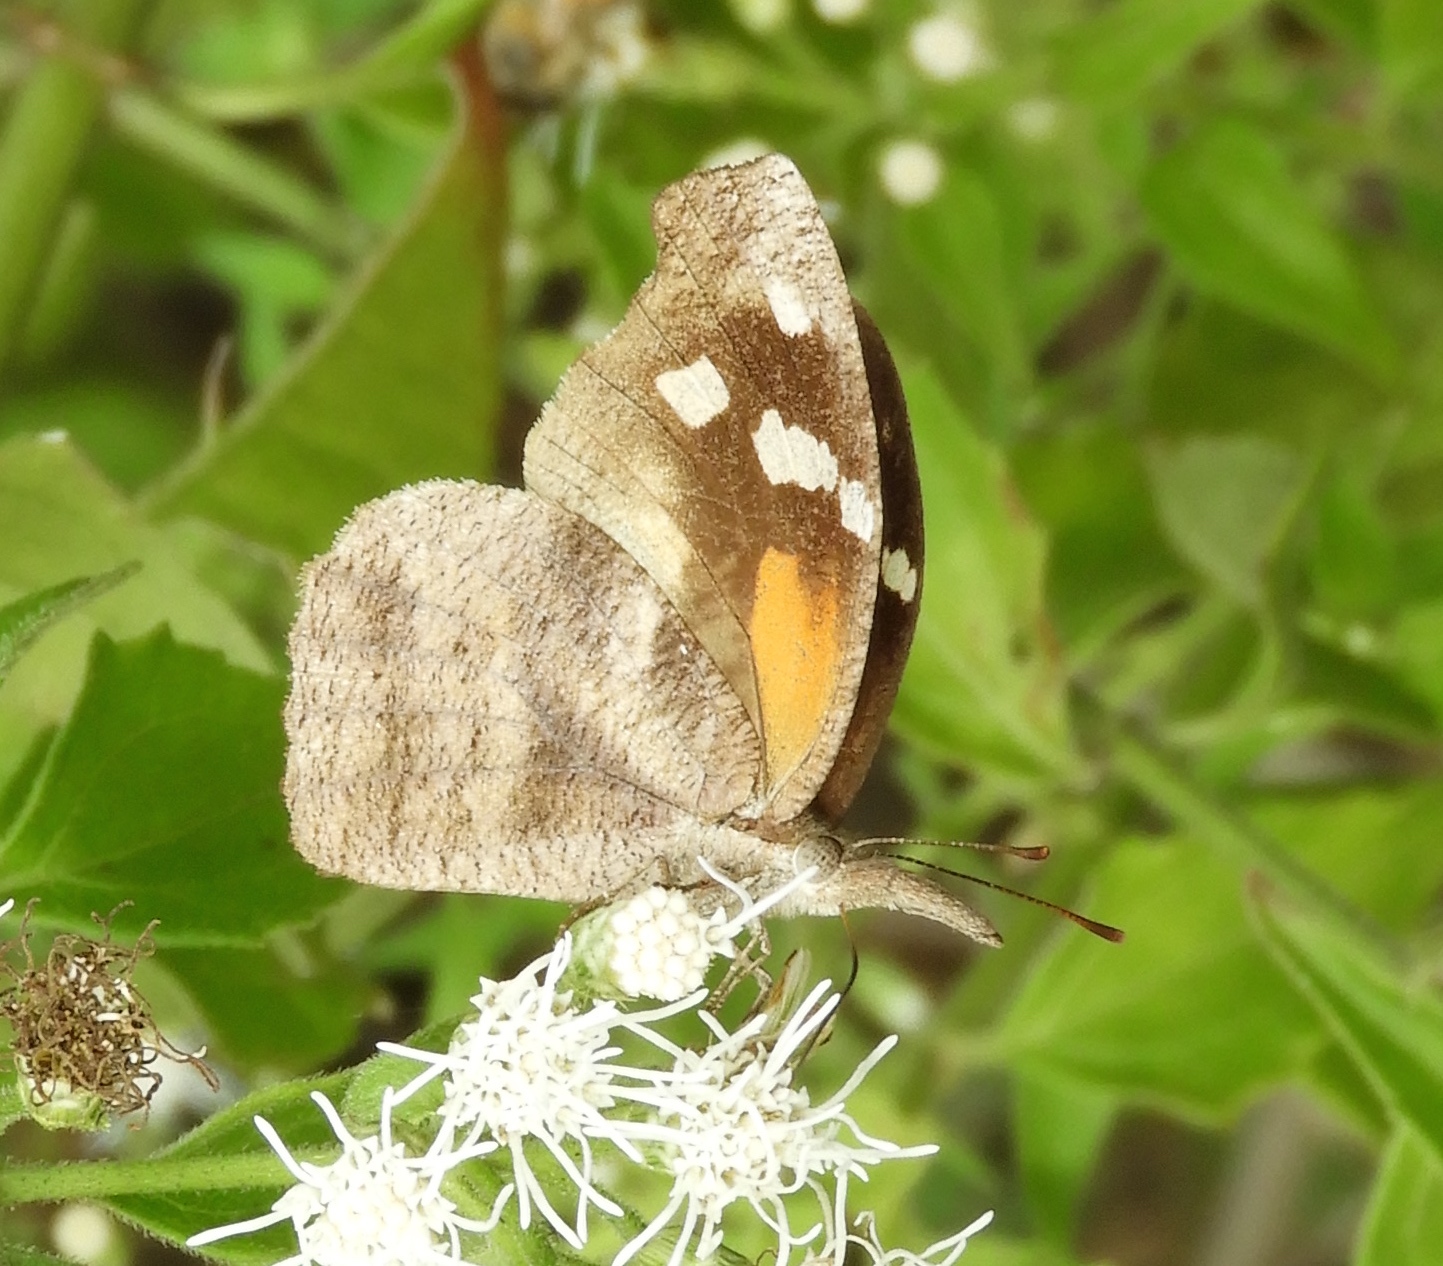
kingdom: Animalia
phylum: Arthropoda
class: Insecta
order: Lepidoptera
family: Nymphalidae
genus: Libytheana
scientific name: Libytheana carinenta
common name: American snout
